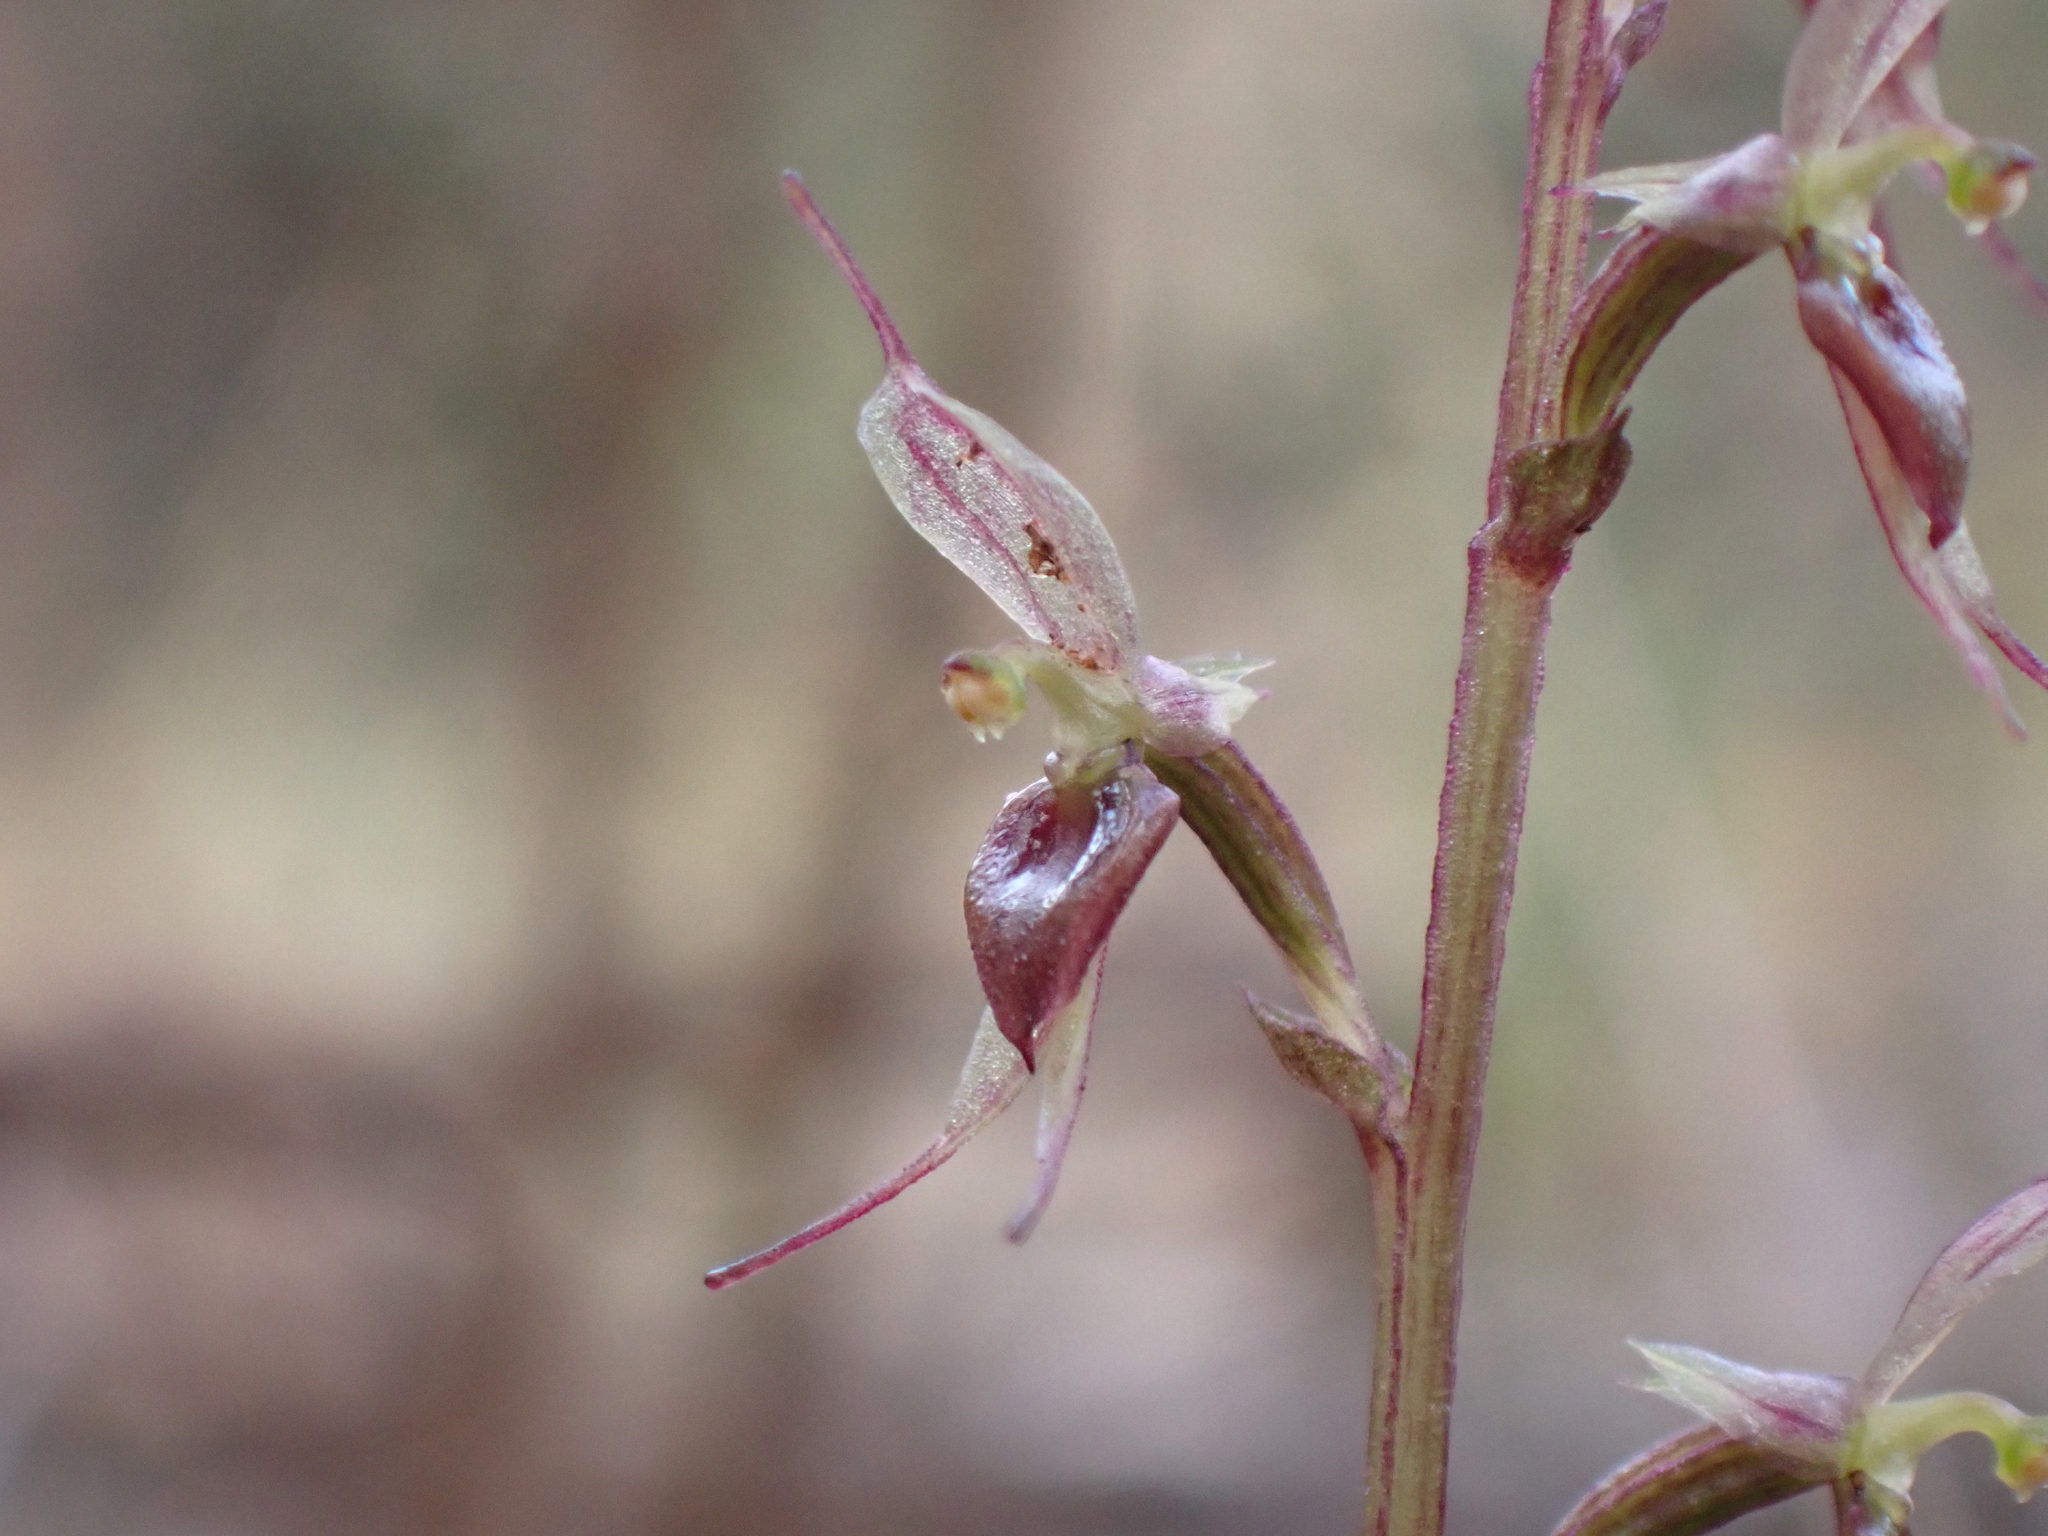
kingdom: Plantae
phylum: Tracheophyta
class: Liliopsida
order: Asparagales
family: Orchidaceae
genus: Acianthus
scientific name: Acianthus pusillus
